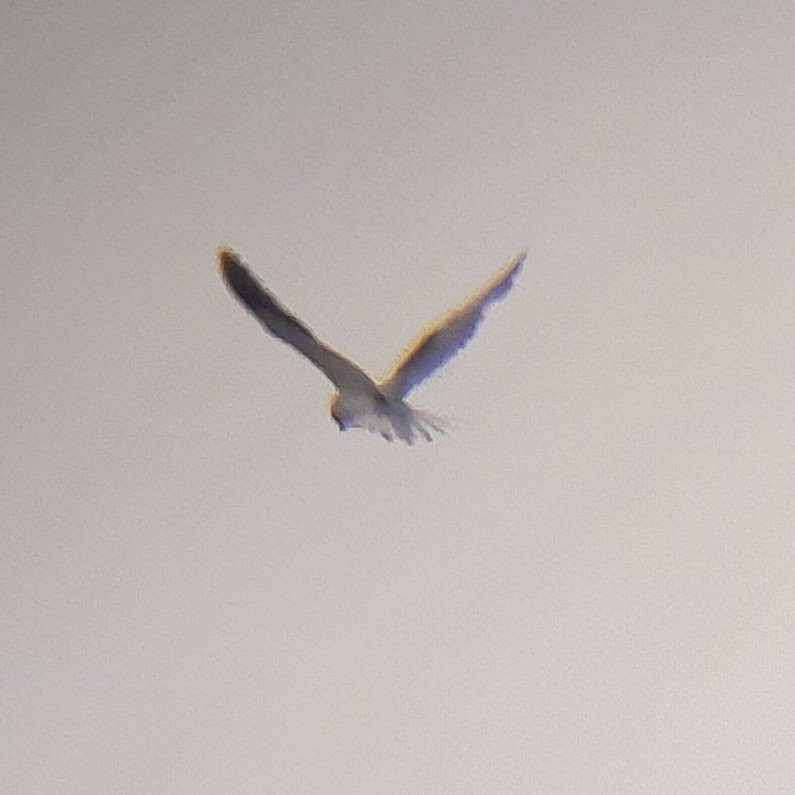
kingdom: Animalia
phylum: Chordata
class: Aves
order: Accipitriformes
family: Accipitridae
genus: Elanus
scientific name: Elanus caeruleus
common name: Black-winged kite
